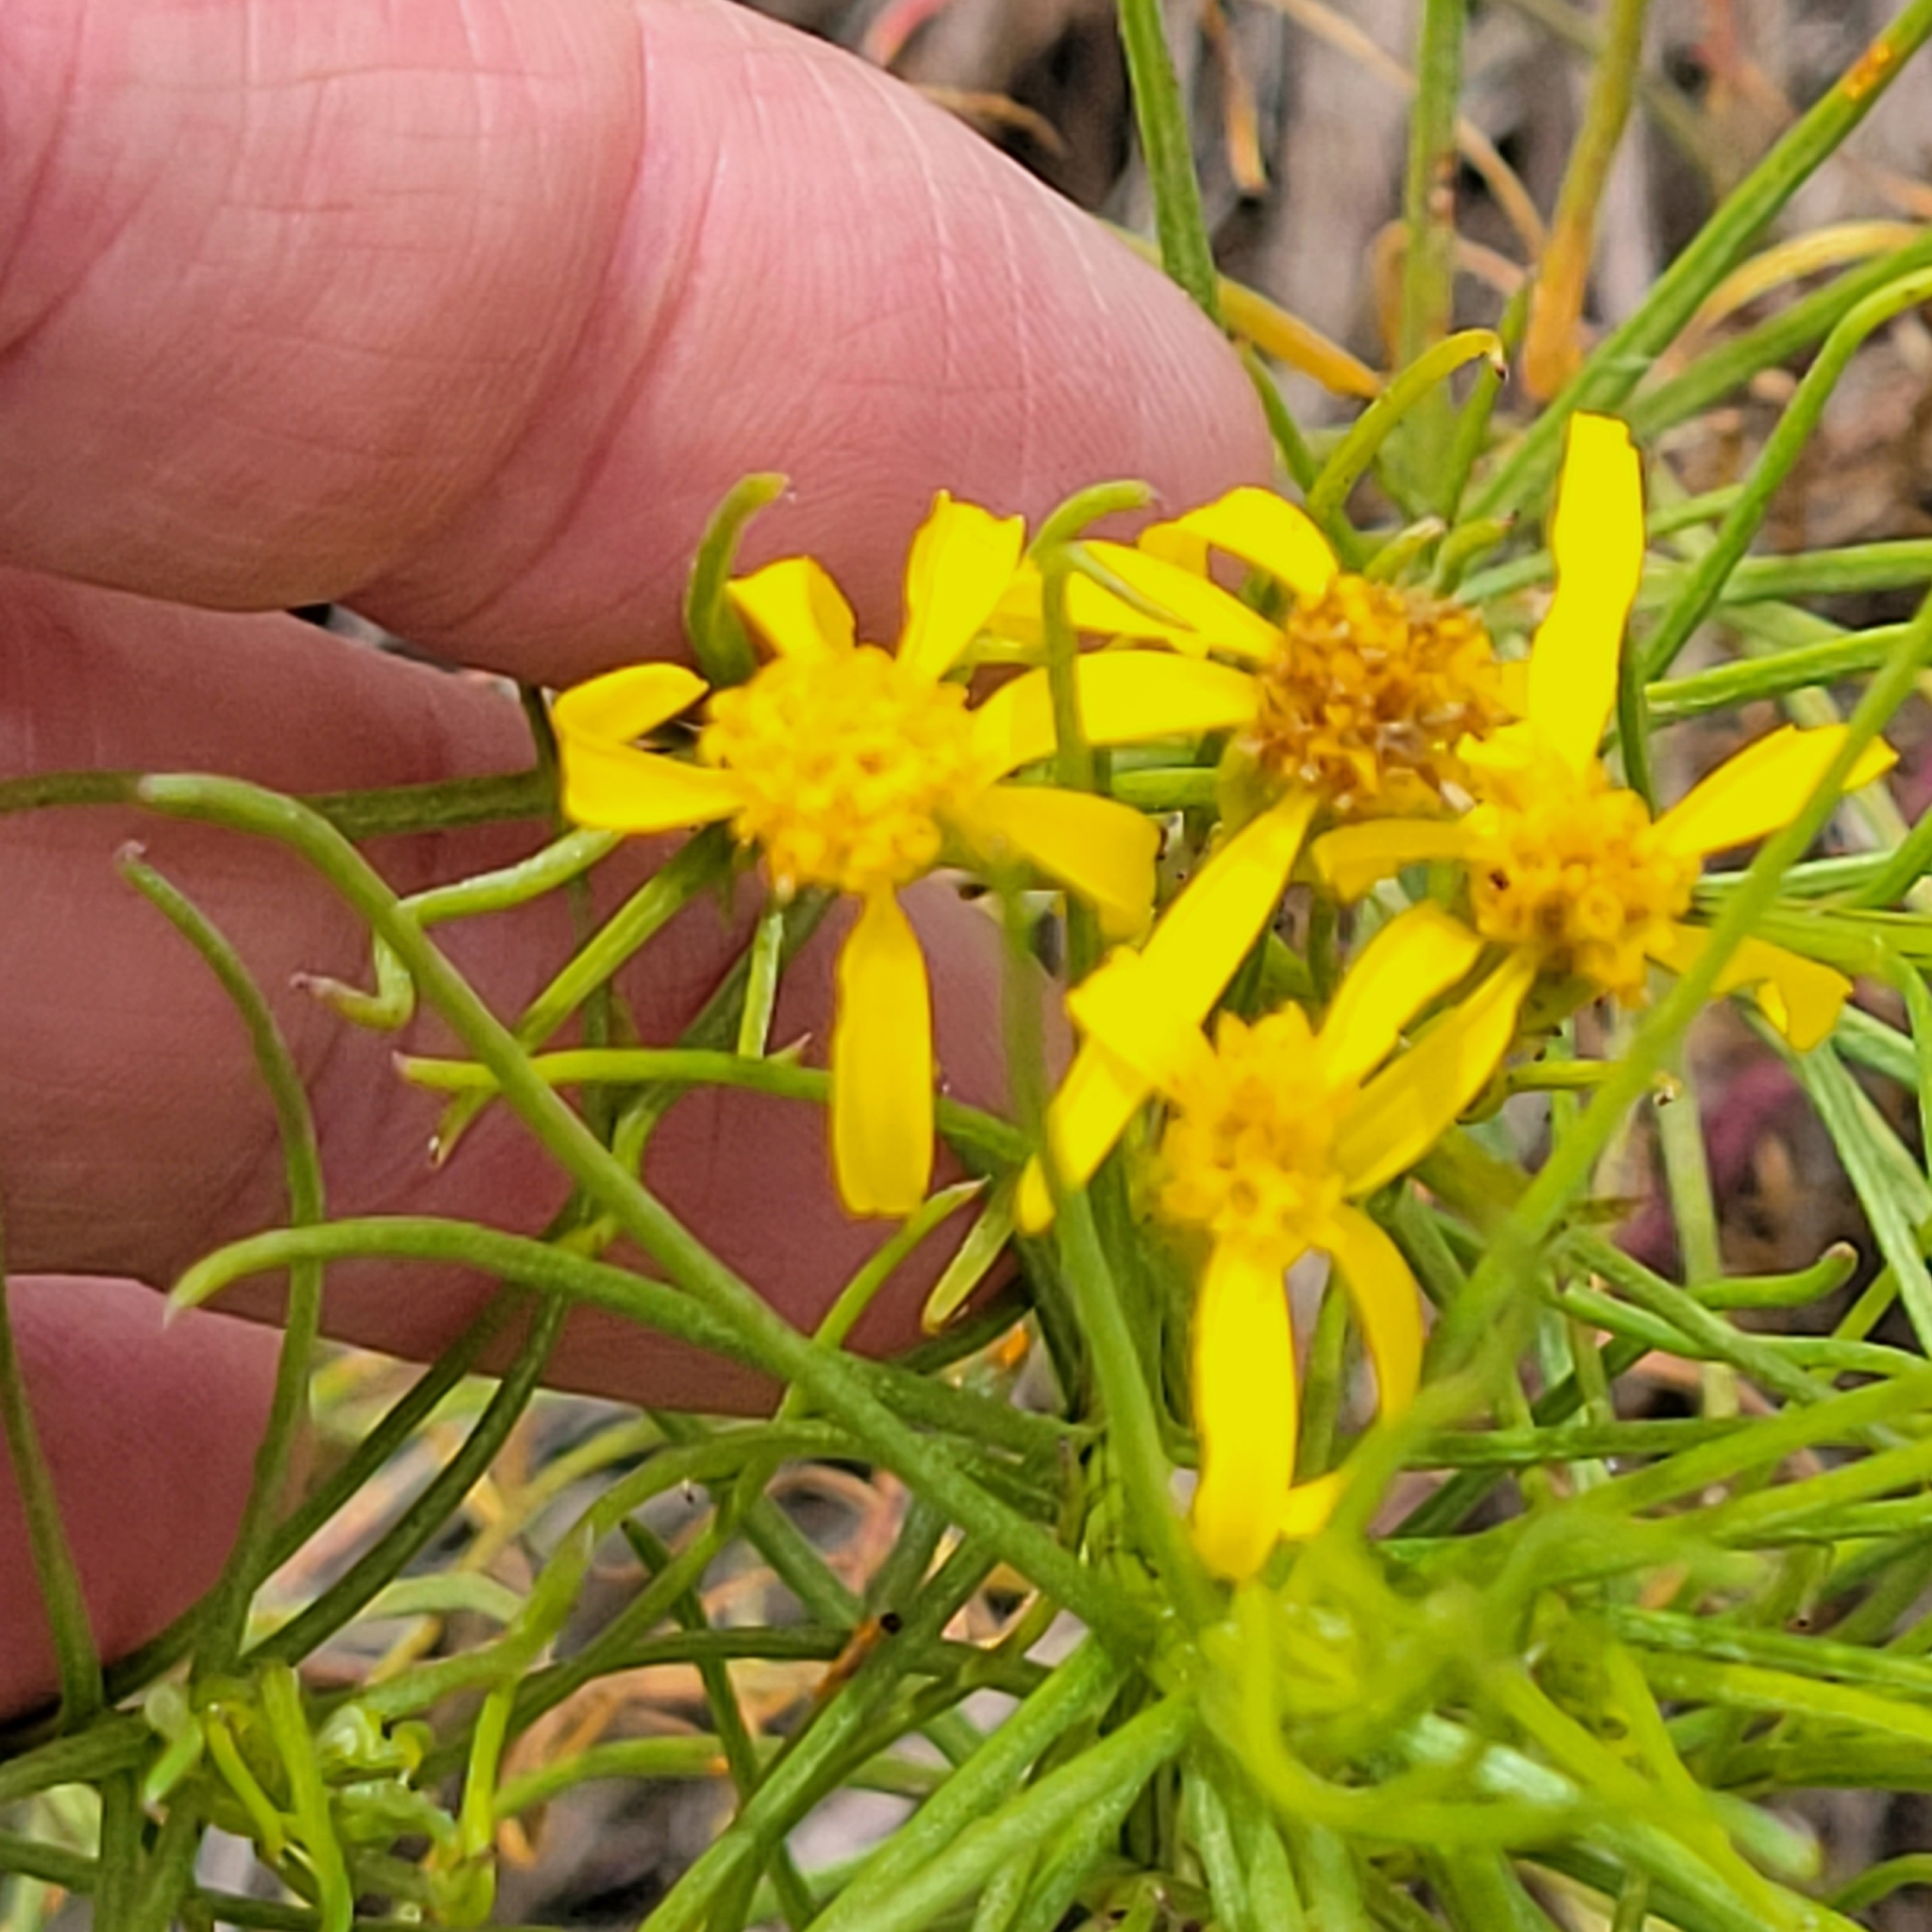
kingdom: Plantae
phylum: Tracheophyta
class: Magnoliopsida
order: Asterales
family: Asteraceae
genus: Senecio
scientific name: Senecio blochmaniae
